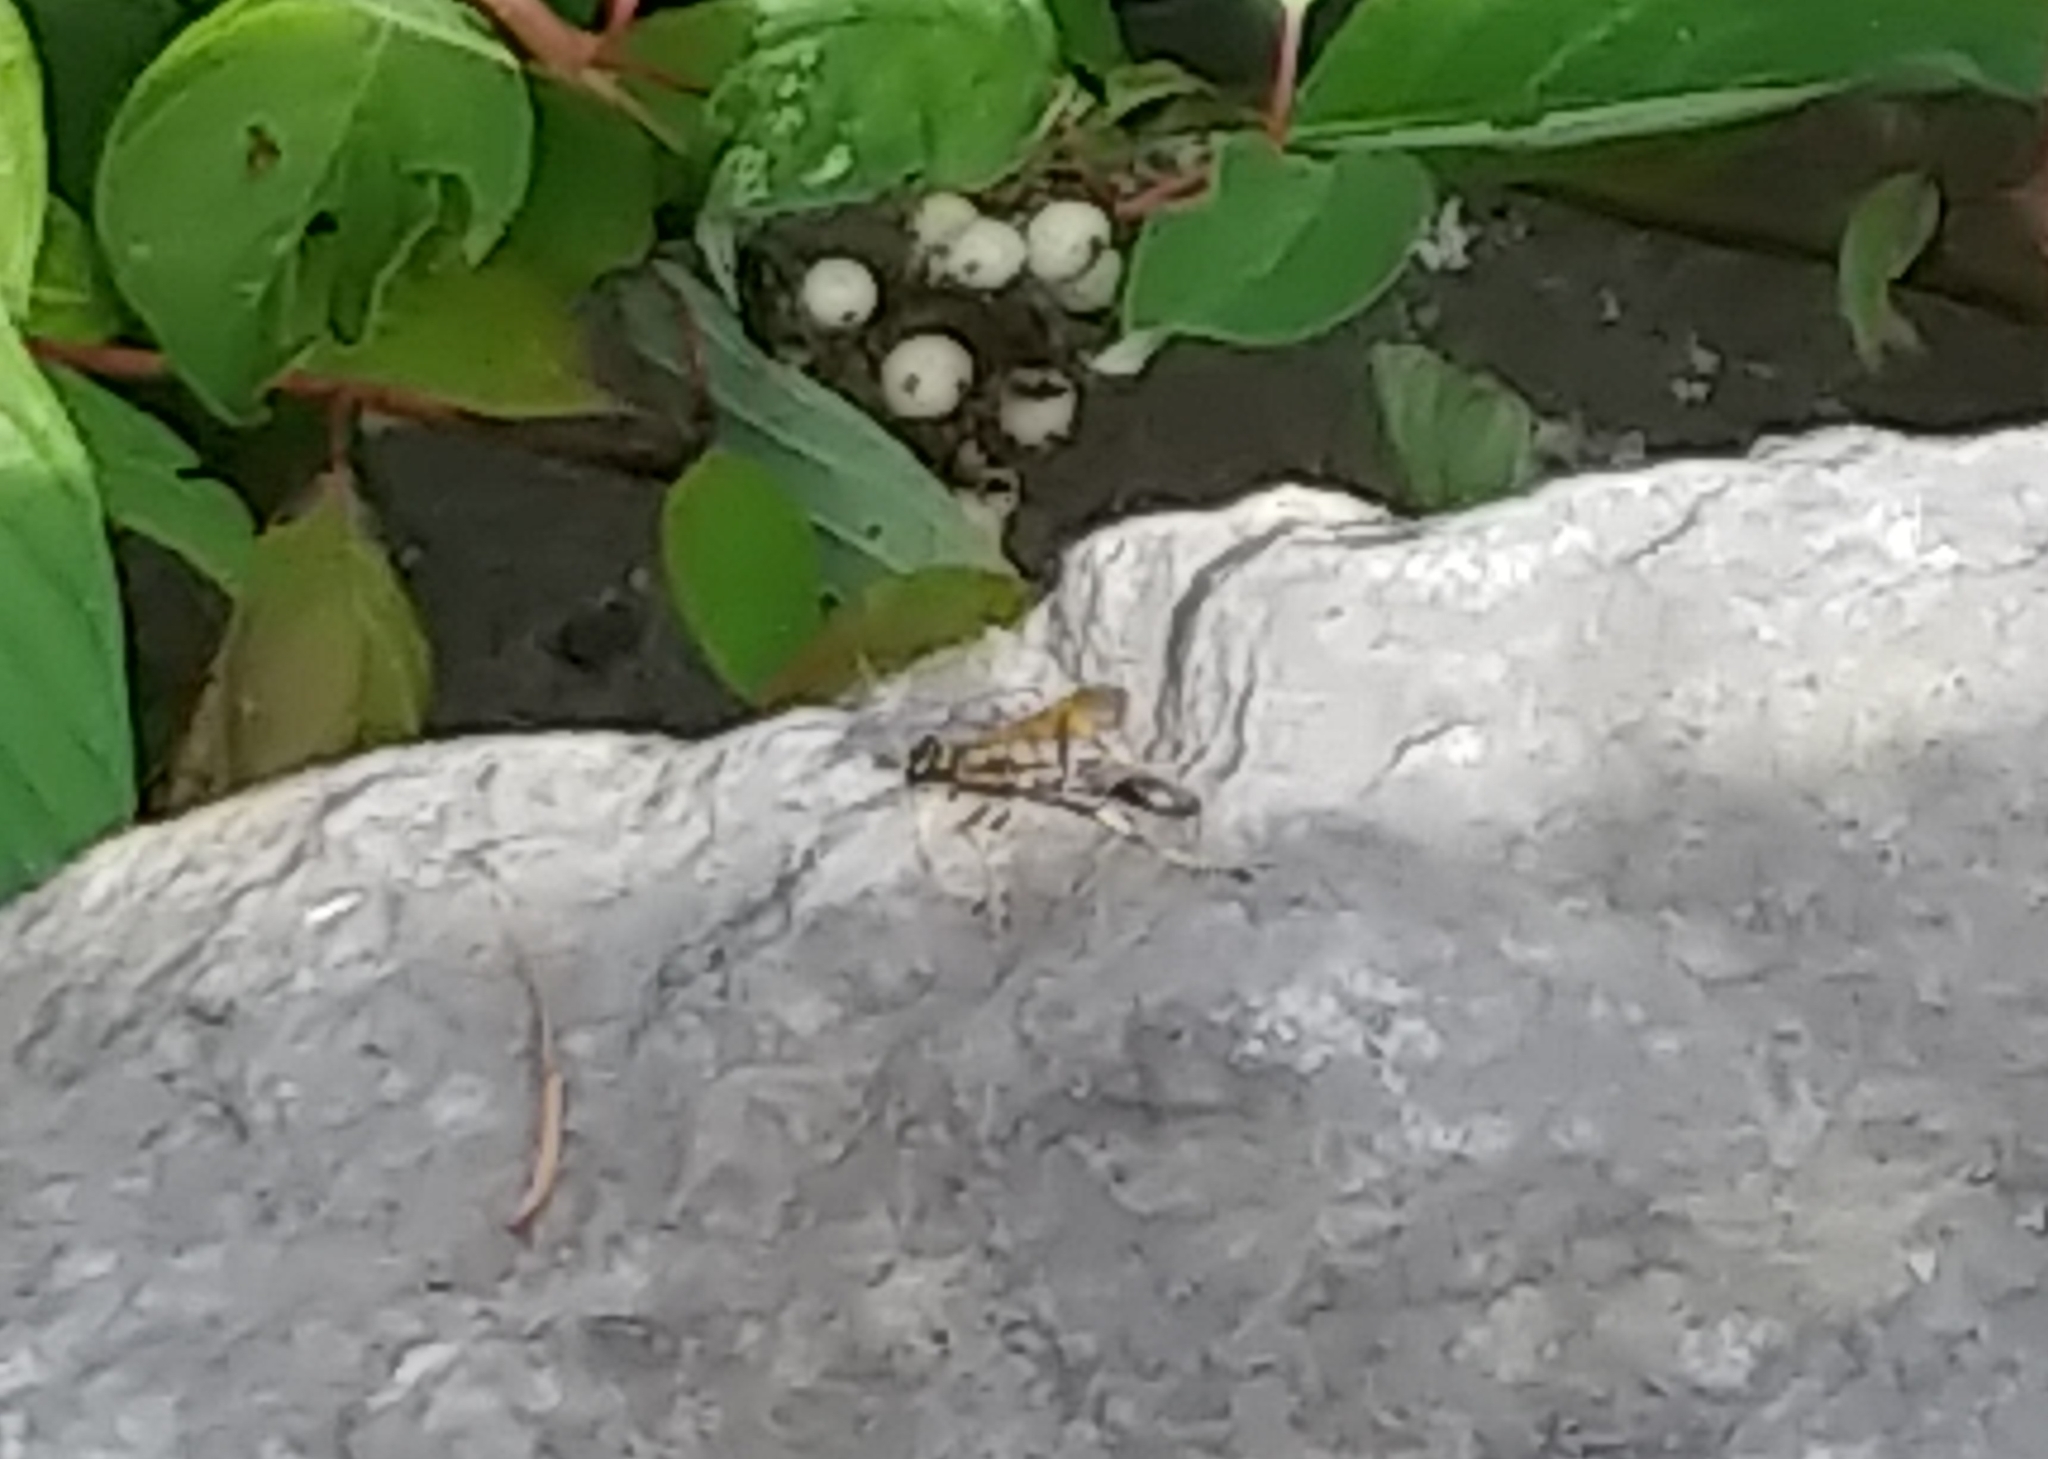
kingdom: Animalia
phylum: Arthropoda
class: Insecta
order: Hymenoptera
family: Sphecidae
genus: Sceliphron
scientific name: Sceliphron caementarium
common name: Mud dauber
